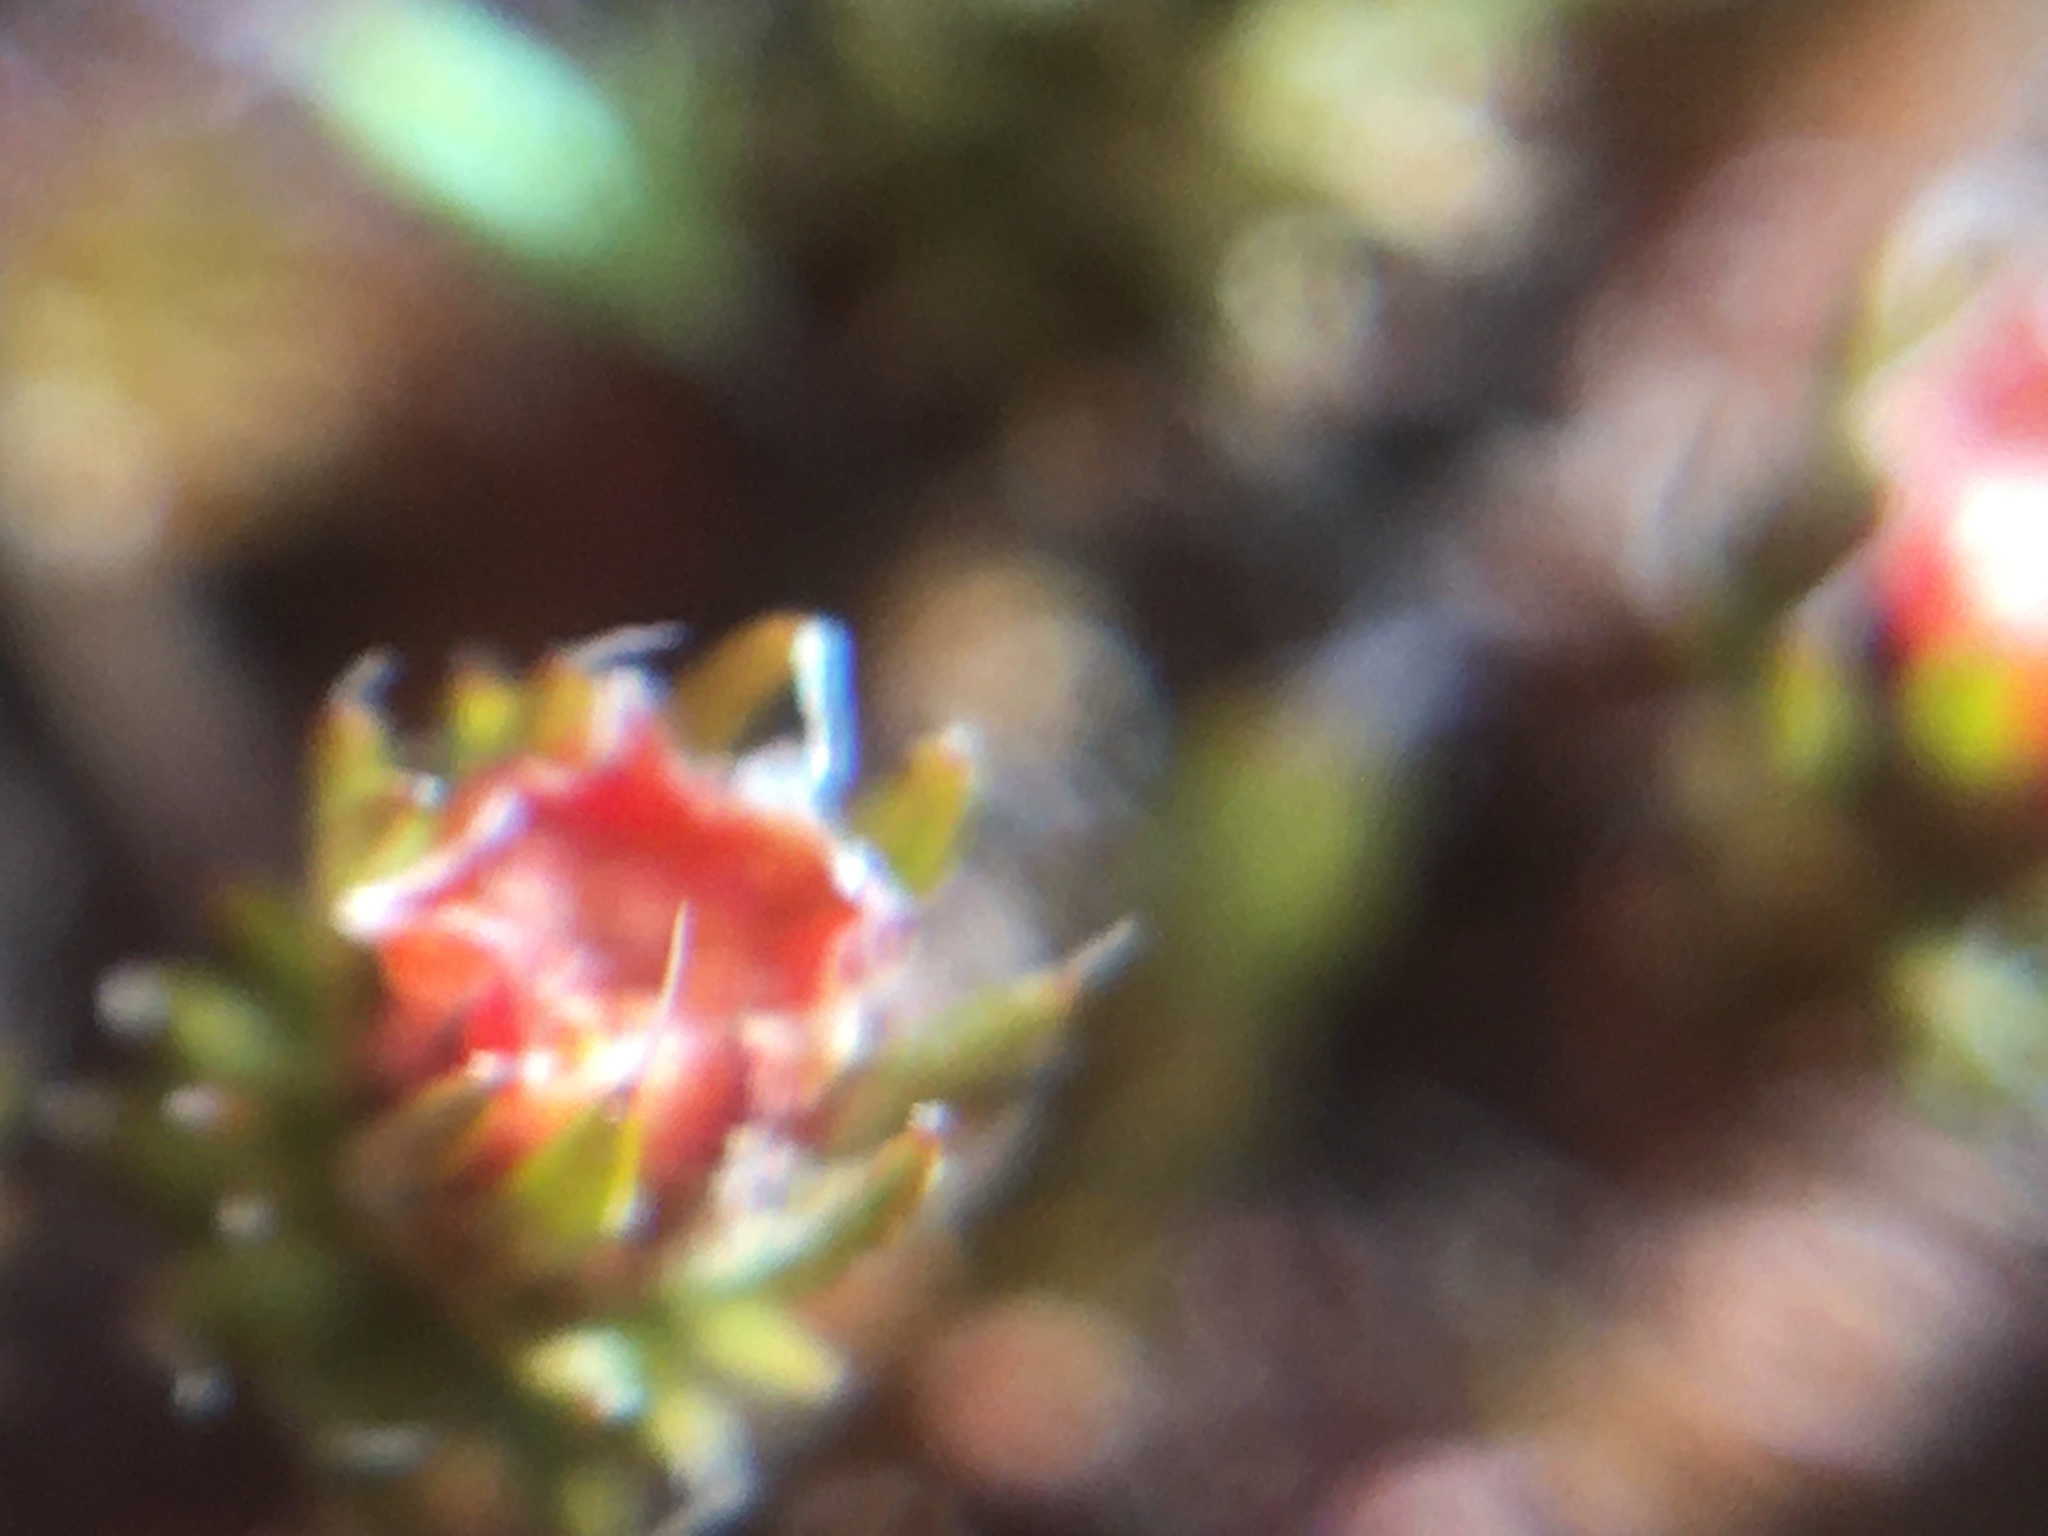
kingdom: Plantae
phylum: Bryophyta
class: Polytrichopsida
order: Polytrichales
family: Polytrichaceae
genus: Polytrichum
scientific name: Polytrichum piliferum
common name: Bristly haircap
